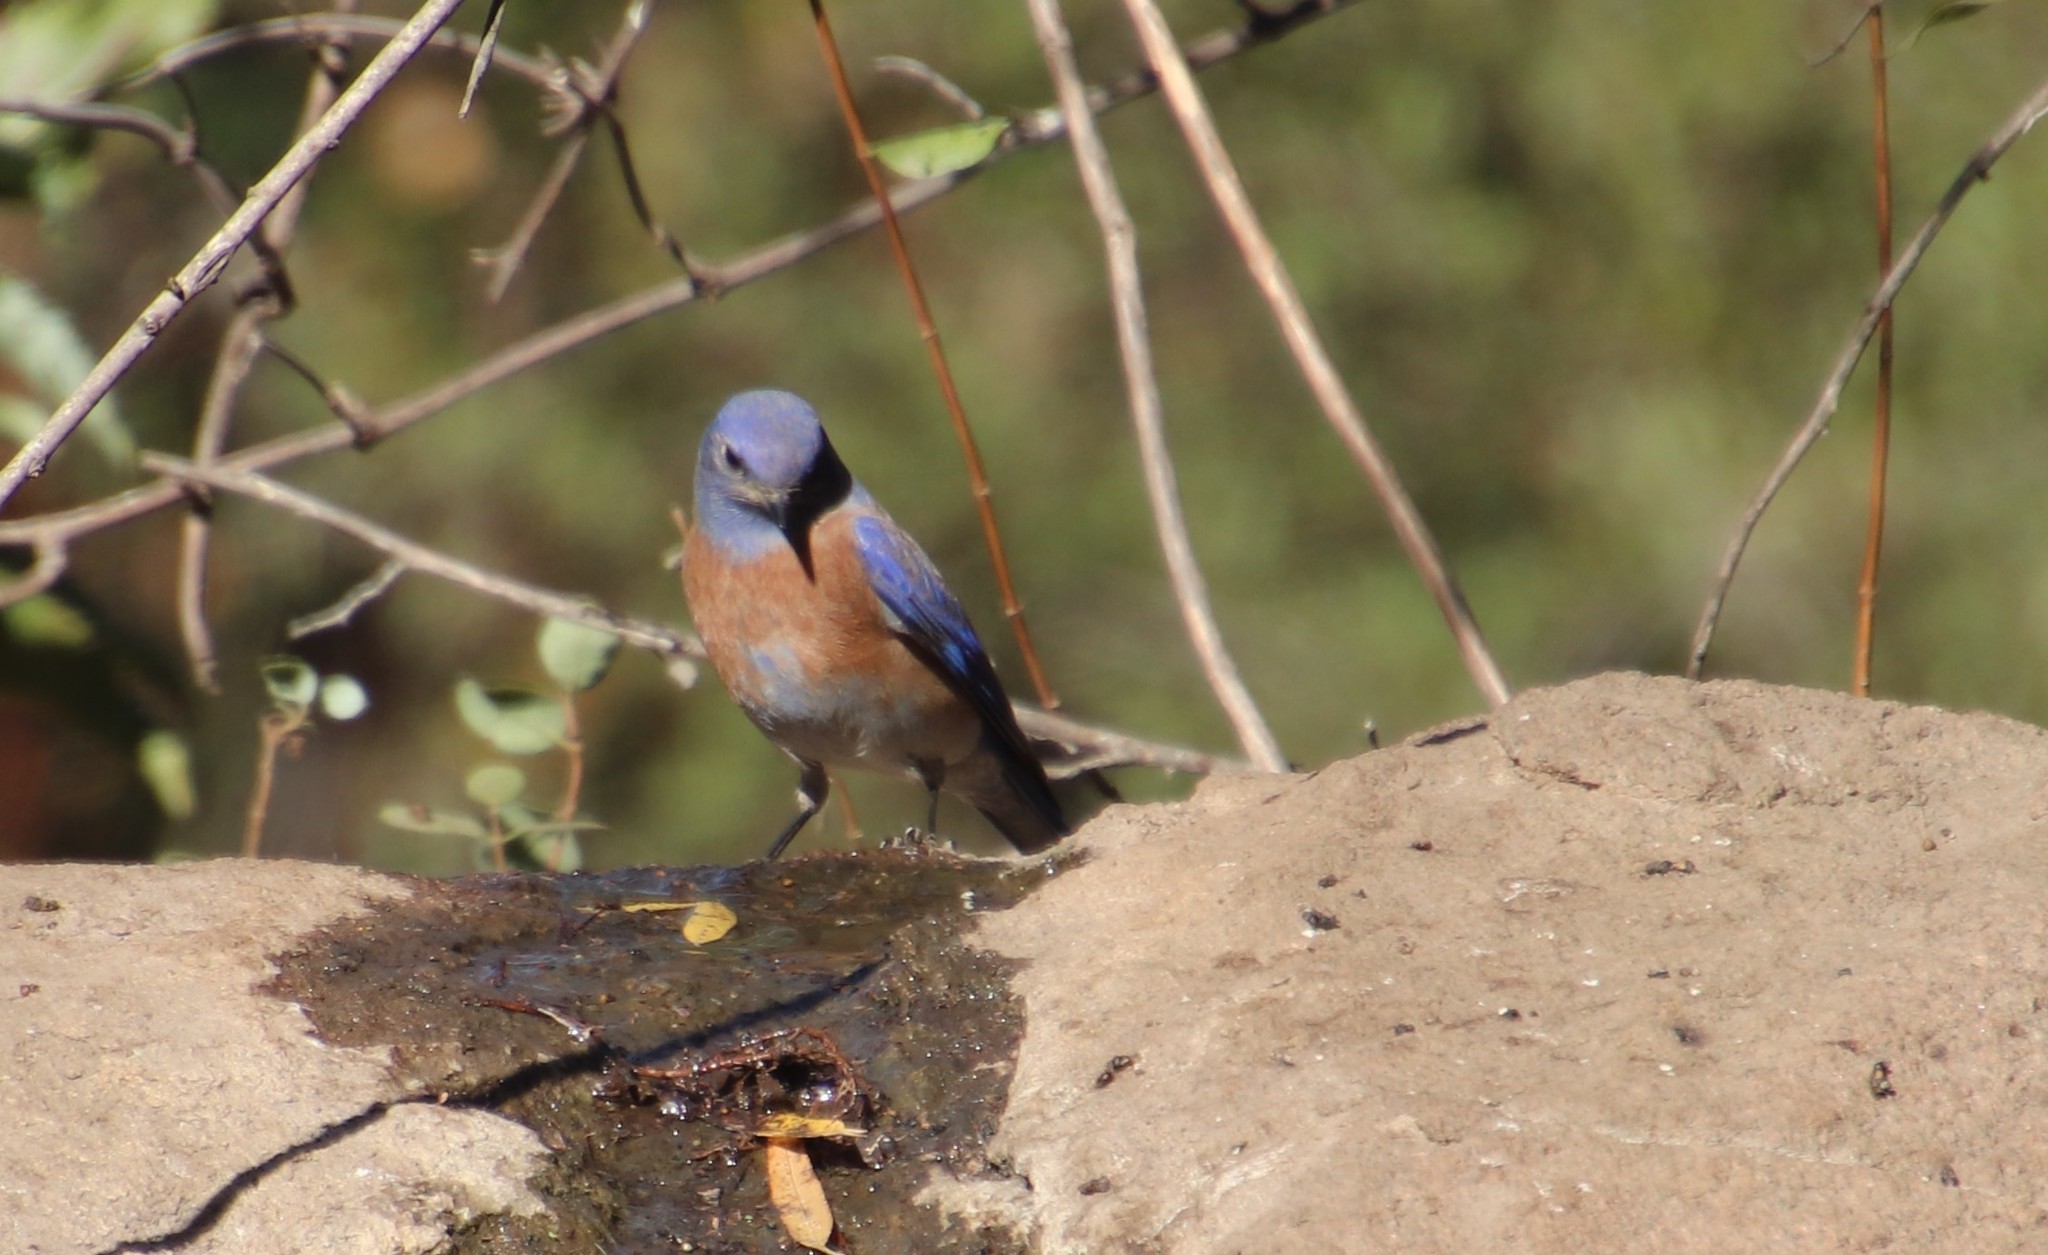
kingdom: Animalia
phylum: Chordata
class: Aves
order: Passeriformes
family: Turdidae
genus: Sialia
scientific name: Sialia mexicana
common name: Western bluebird
